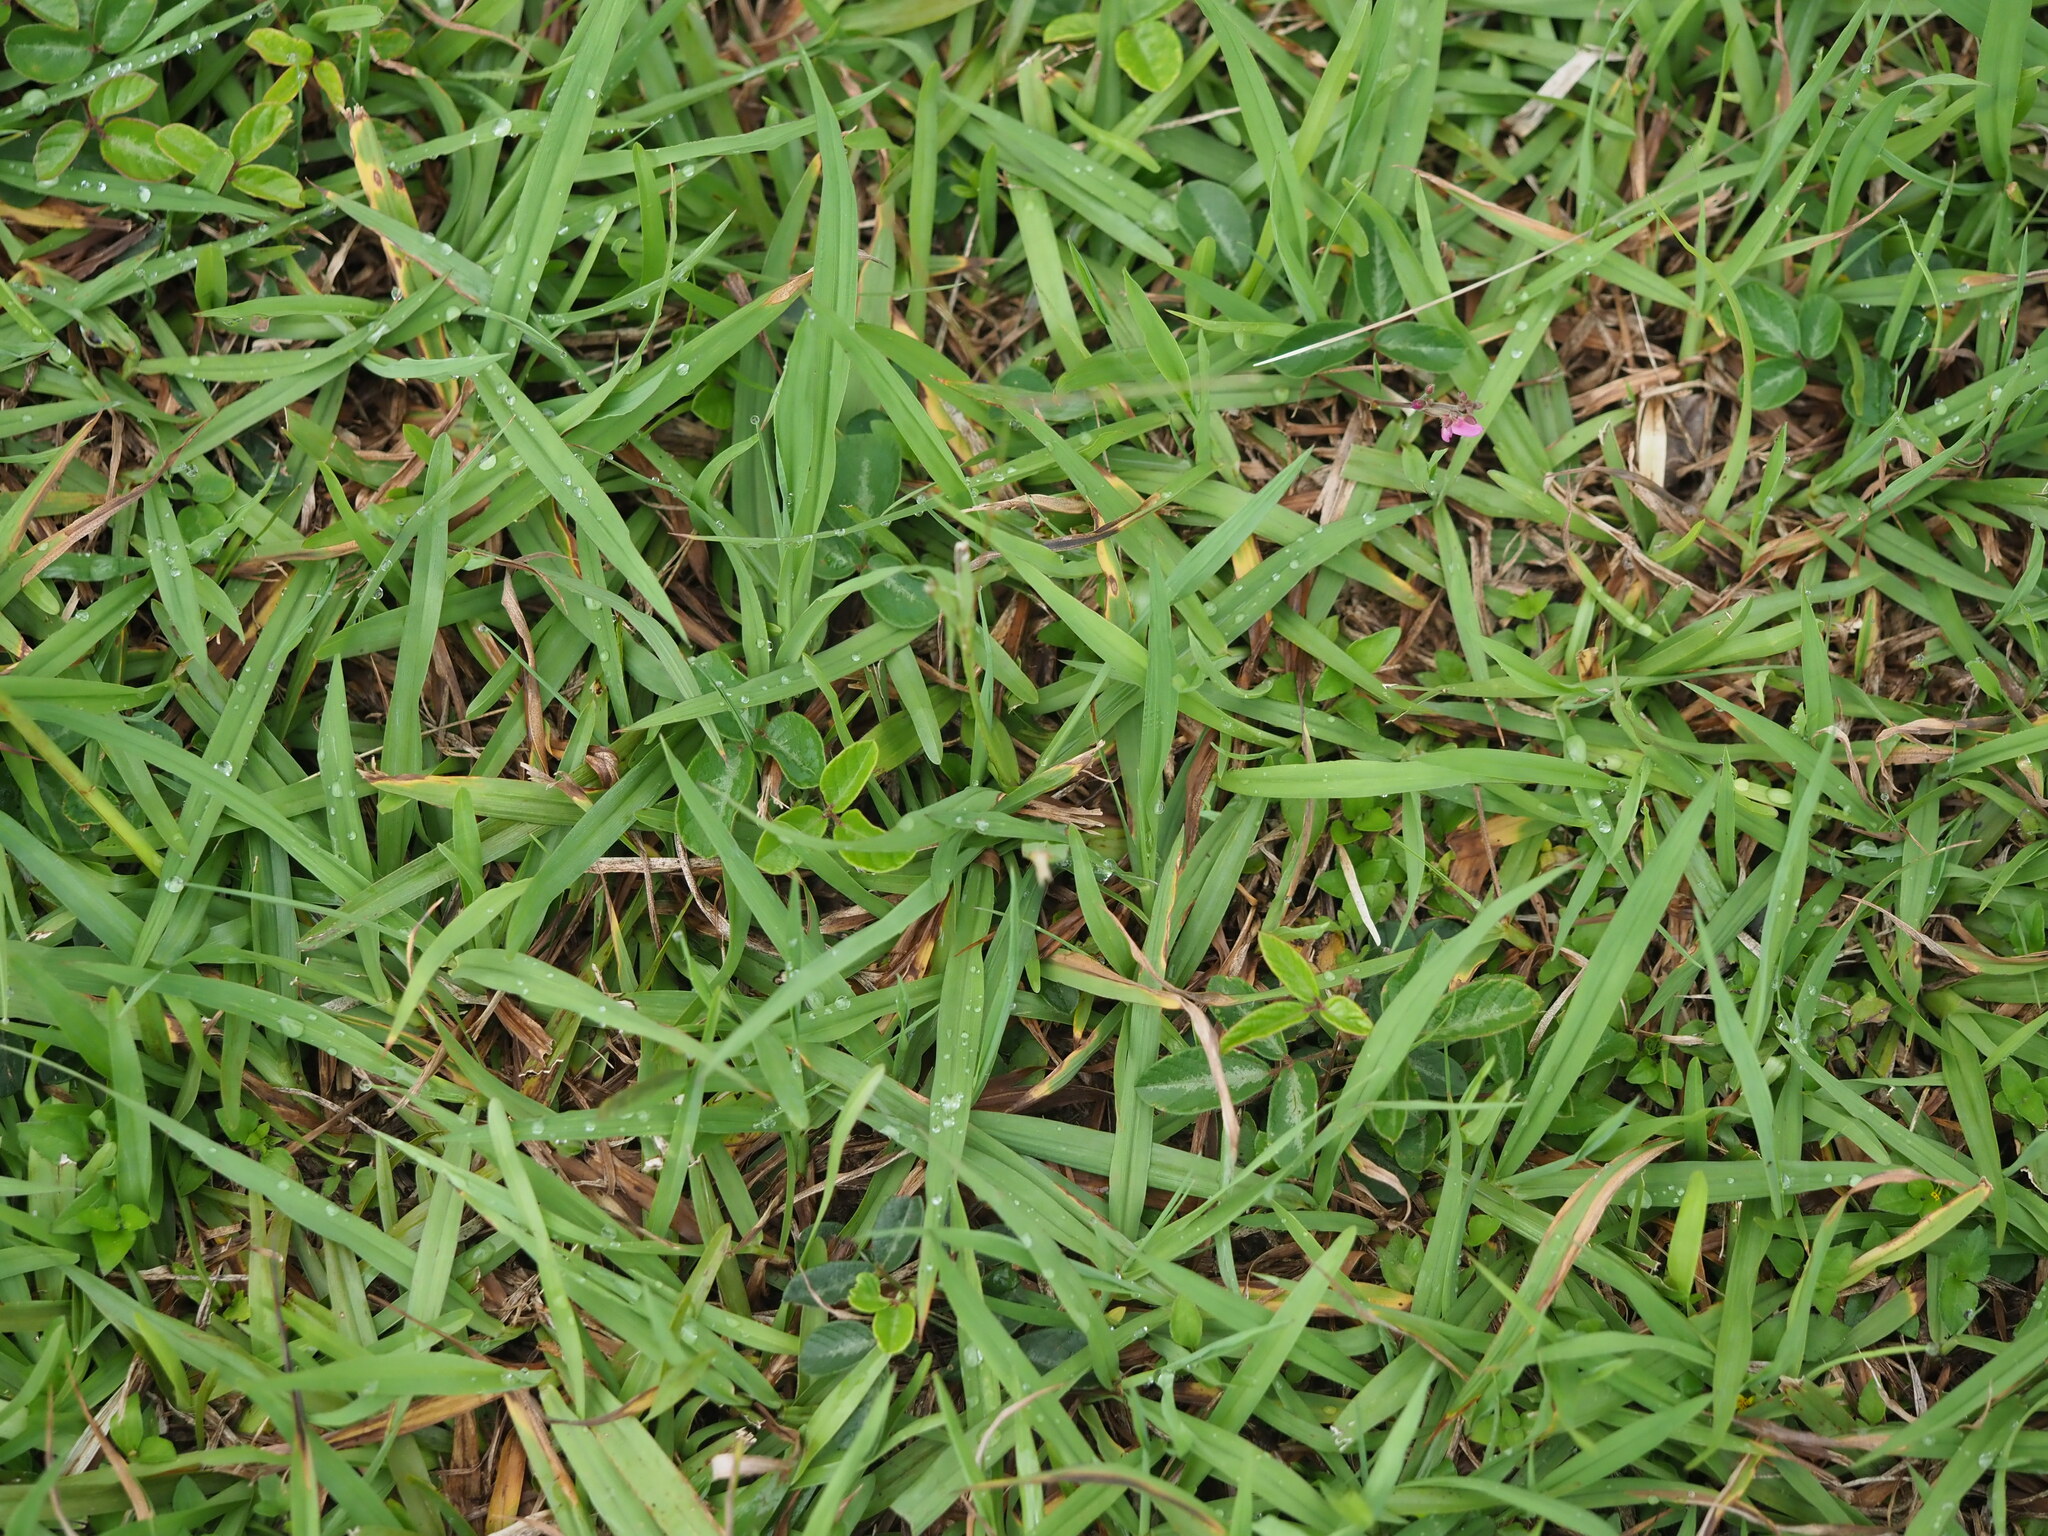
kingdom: Plantae
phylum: Tracheophyta
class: Liliopsida
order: Poales
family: Poaceae
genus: Axonopus
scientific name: Axonopus fissifolius
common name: Common carpetgrass
